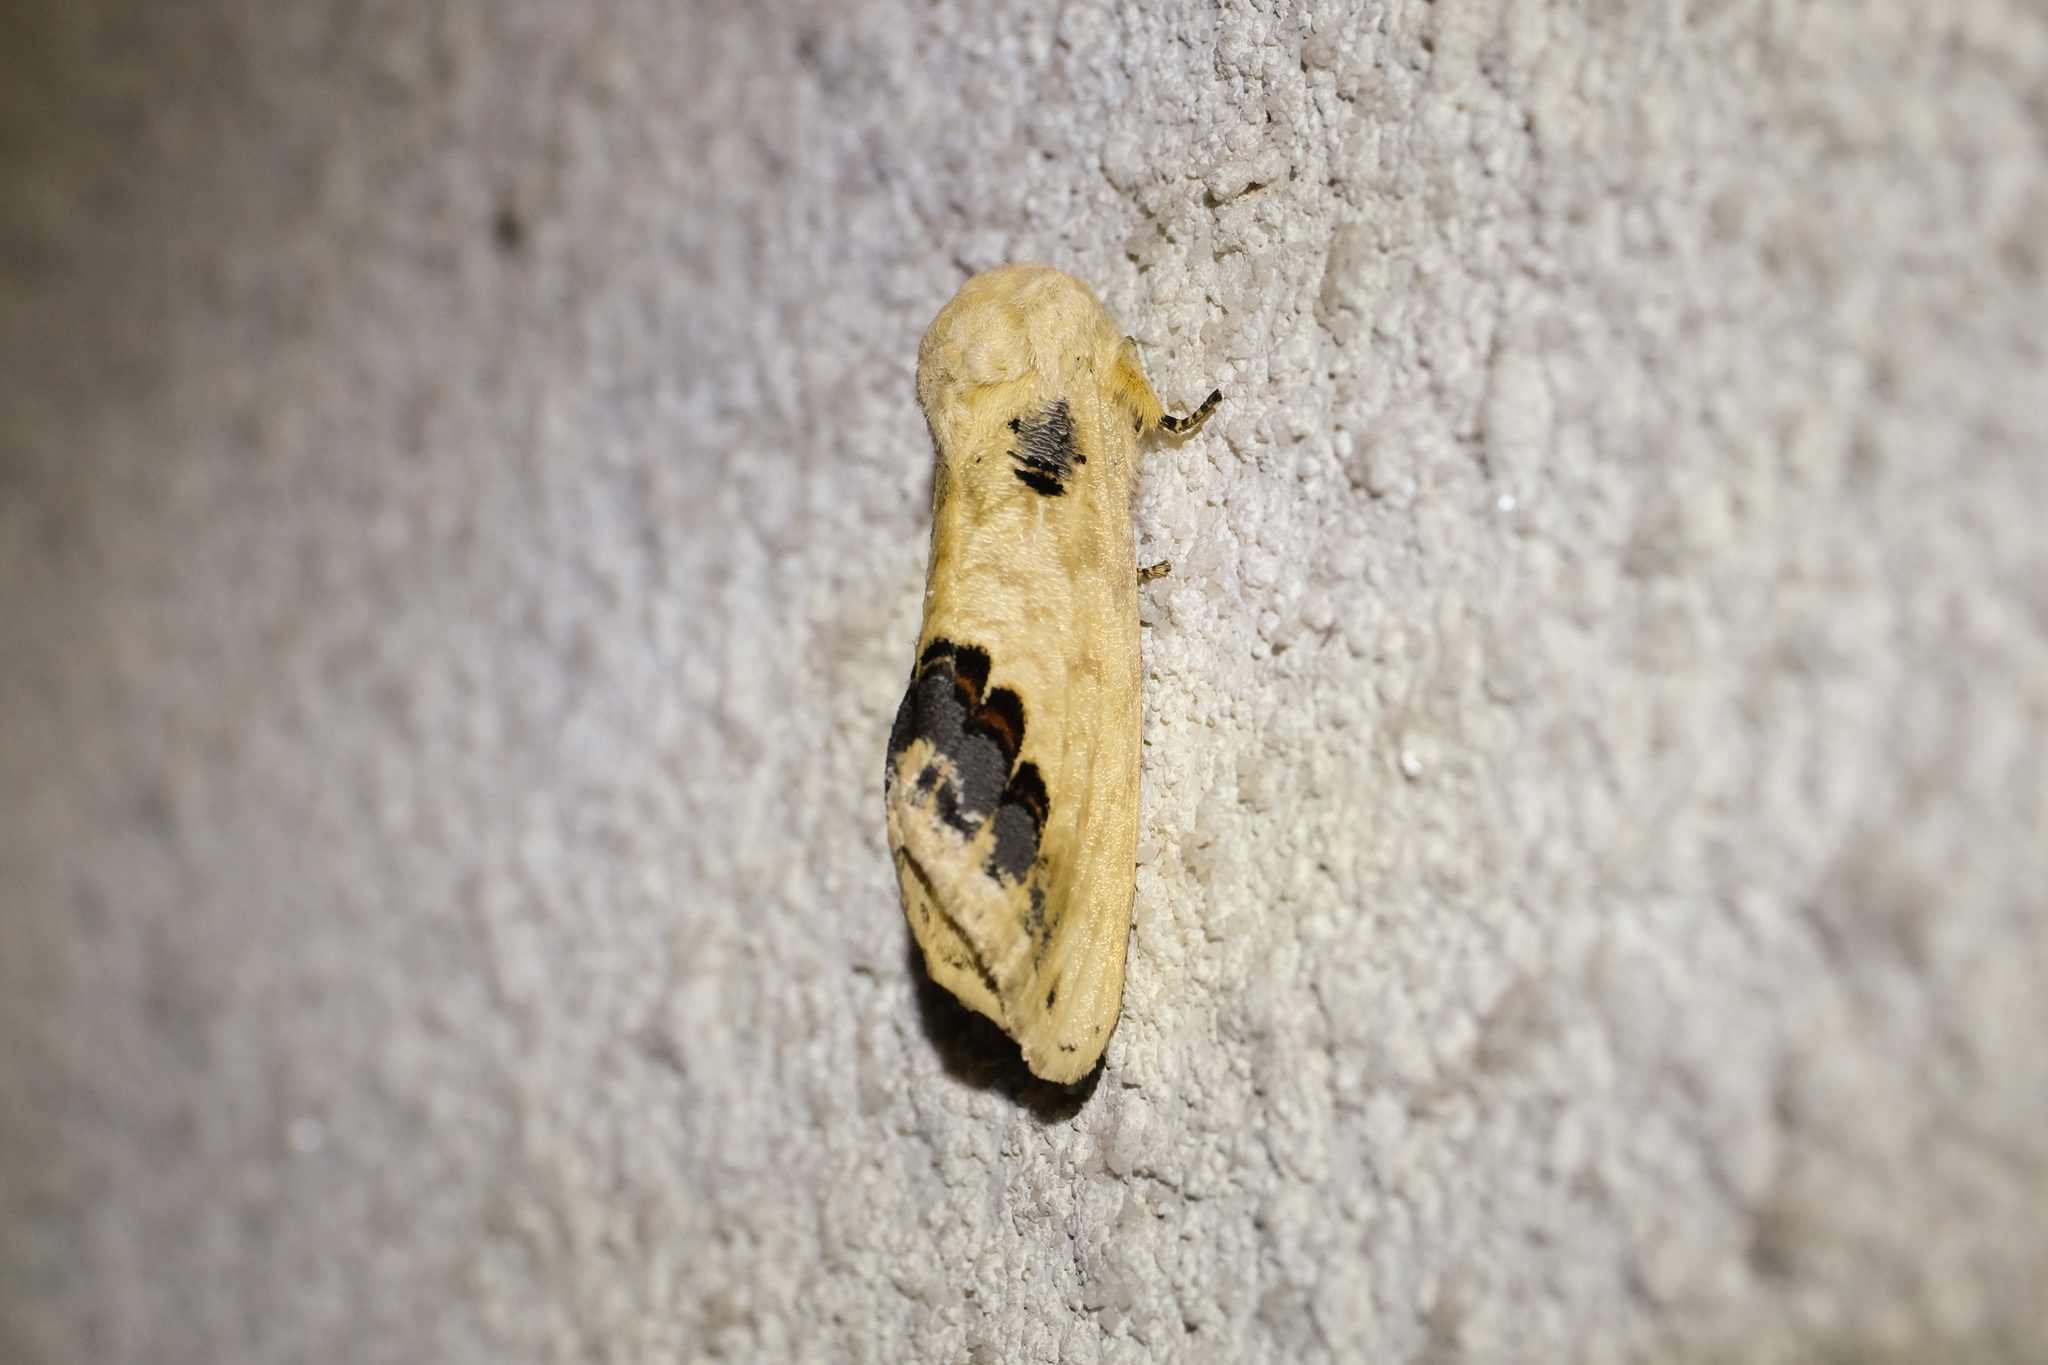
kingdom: Animalia
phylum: Arthropoda
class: Insecta
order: Lepidoptera
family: Notodontidae
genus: Phalera
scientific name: Phalera flavescens
